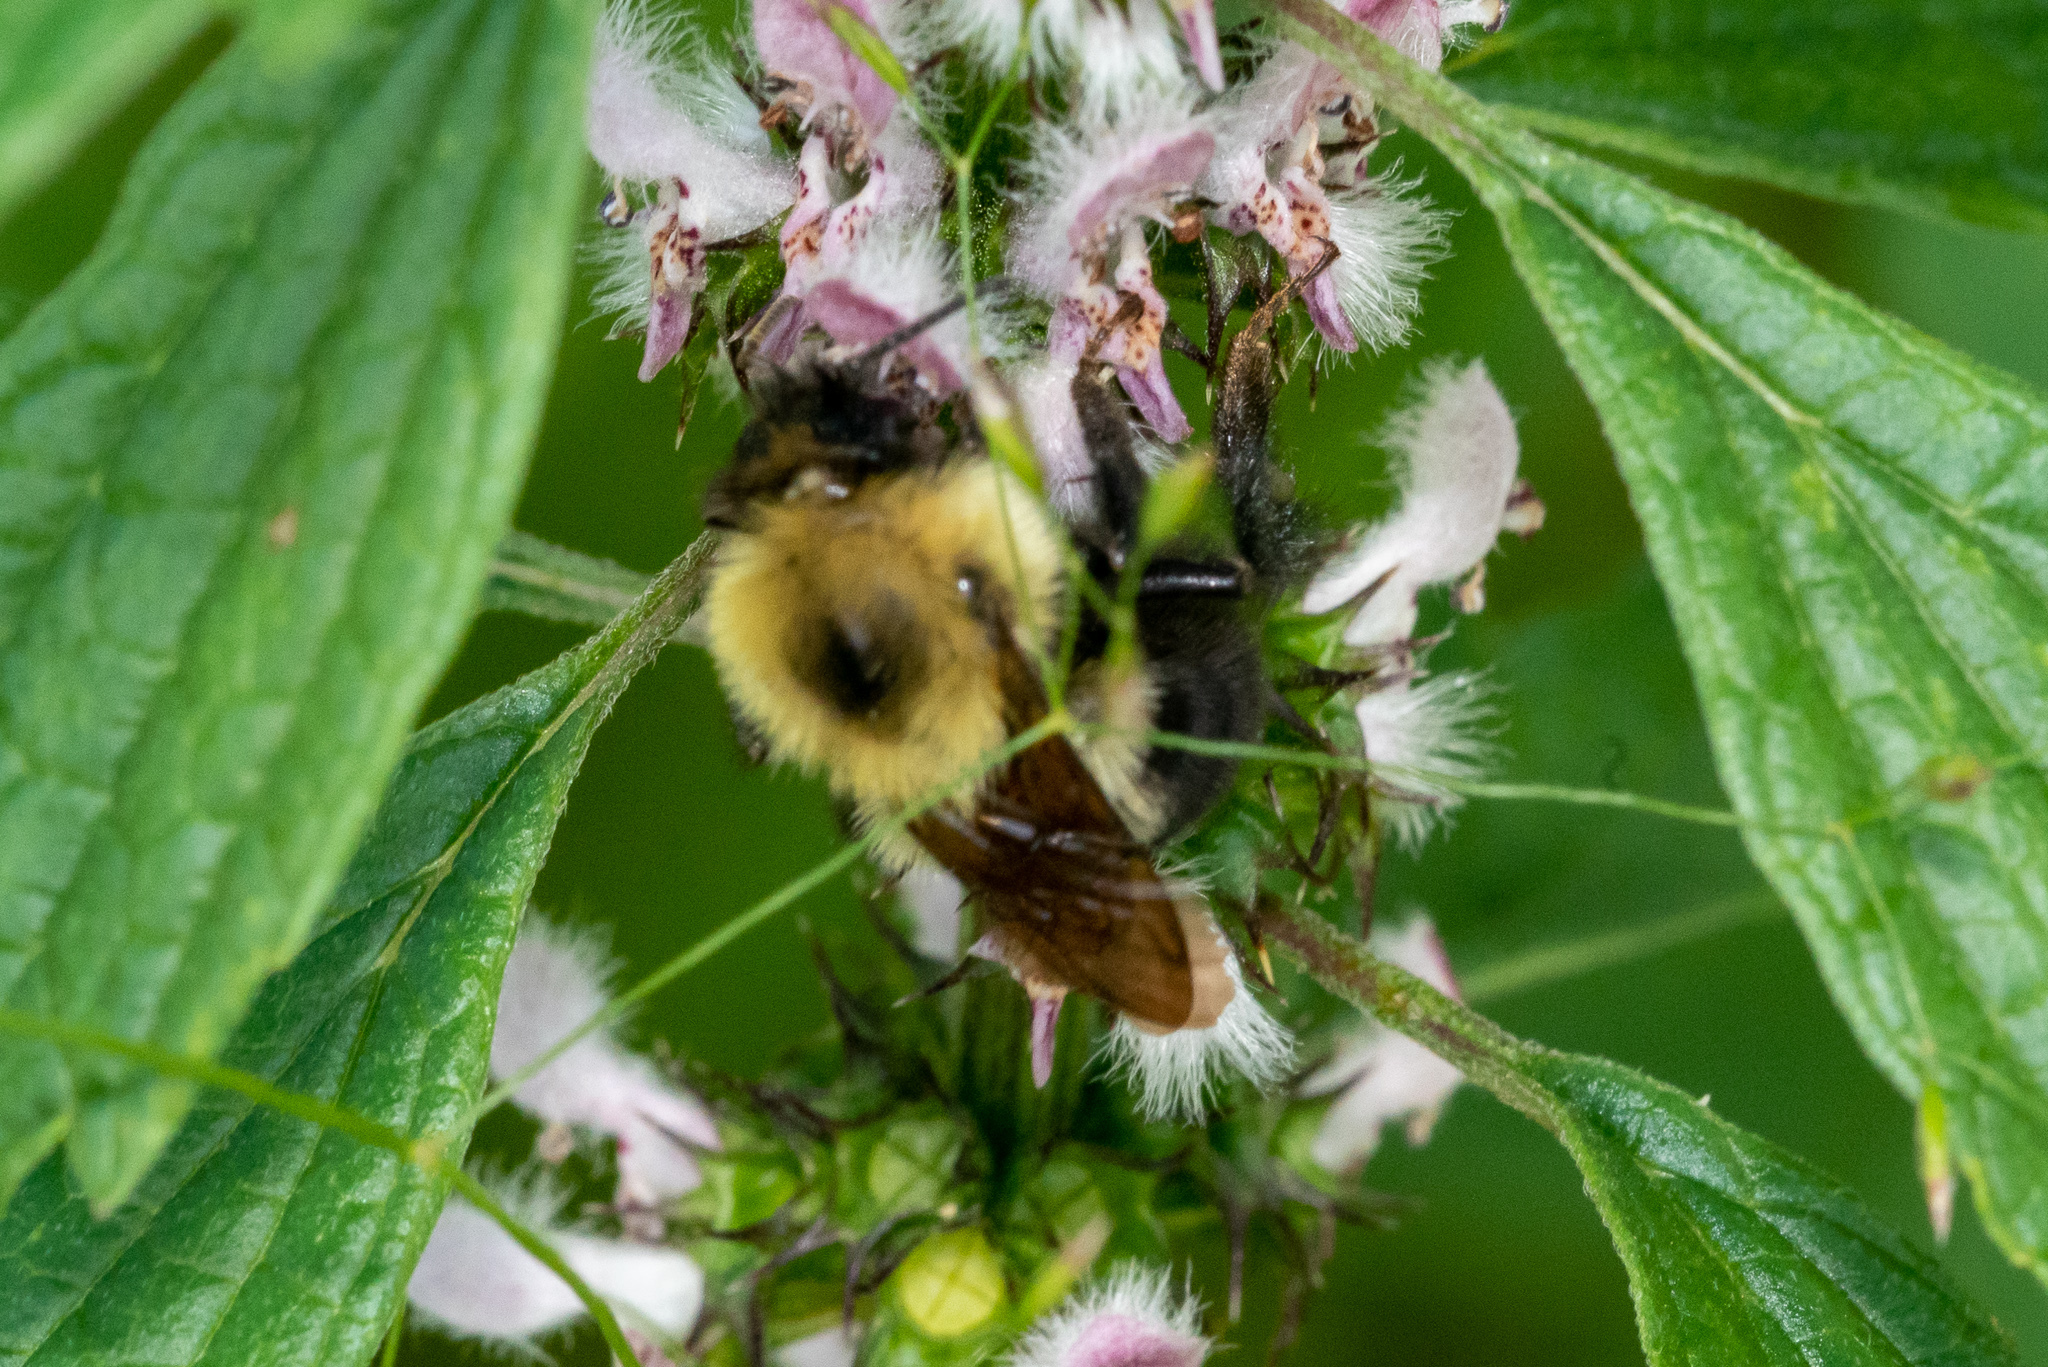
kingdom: Animalia
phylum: Arthropoda
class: Insecta
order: Hymenoptera
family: Apidae
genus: Bombus
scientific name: Bombus bimaculatus
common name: Two-spotted bumble bee
